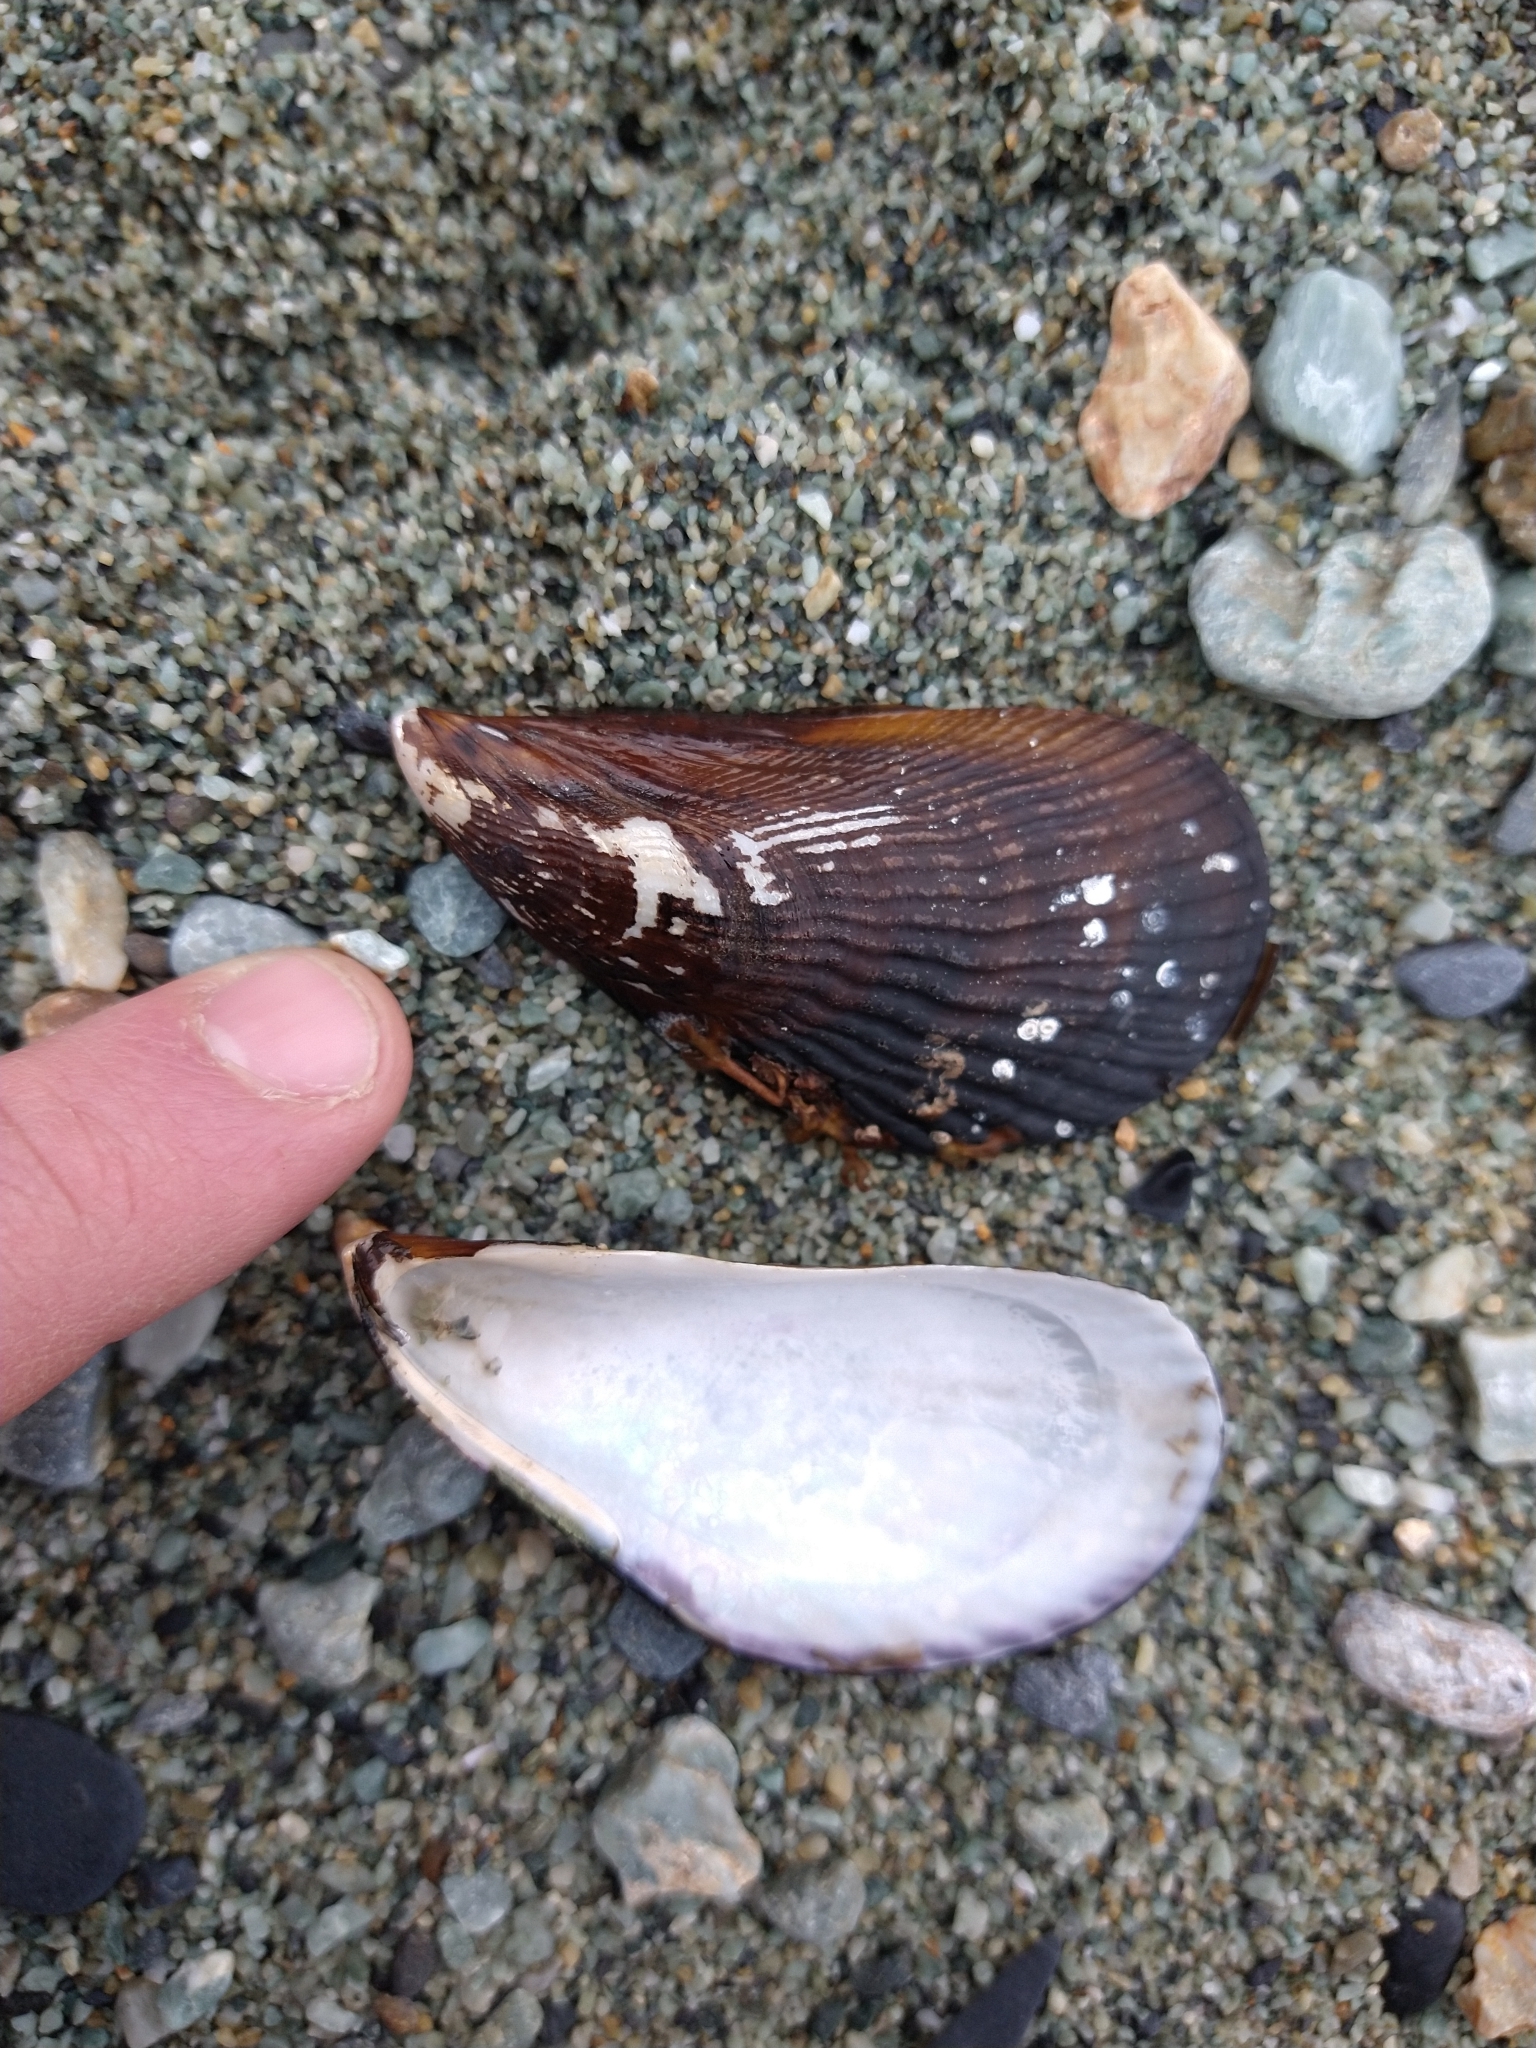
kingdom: Animalia
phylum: Mollusca
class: Bivalvia
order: Mytilida
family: Mytilidae
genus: Aulacomya
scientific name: Aulacomya atra
